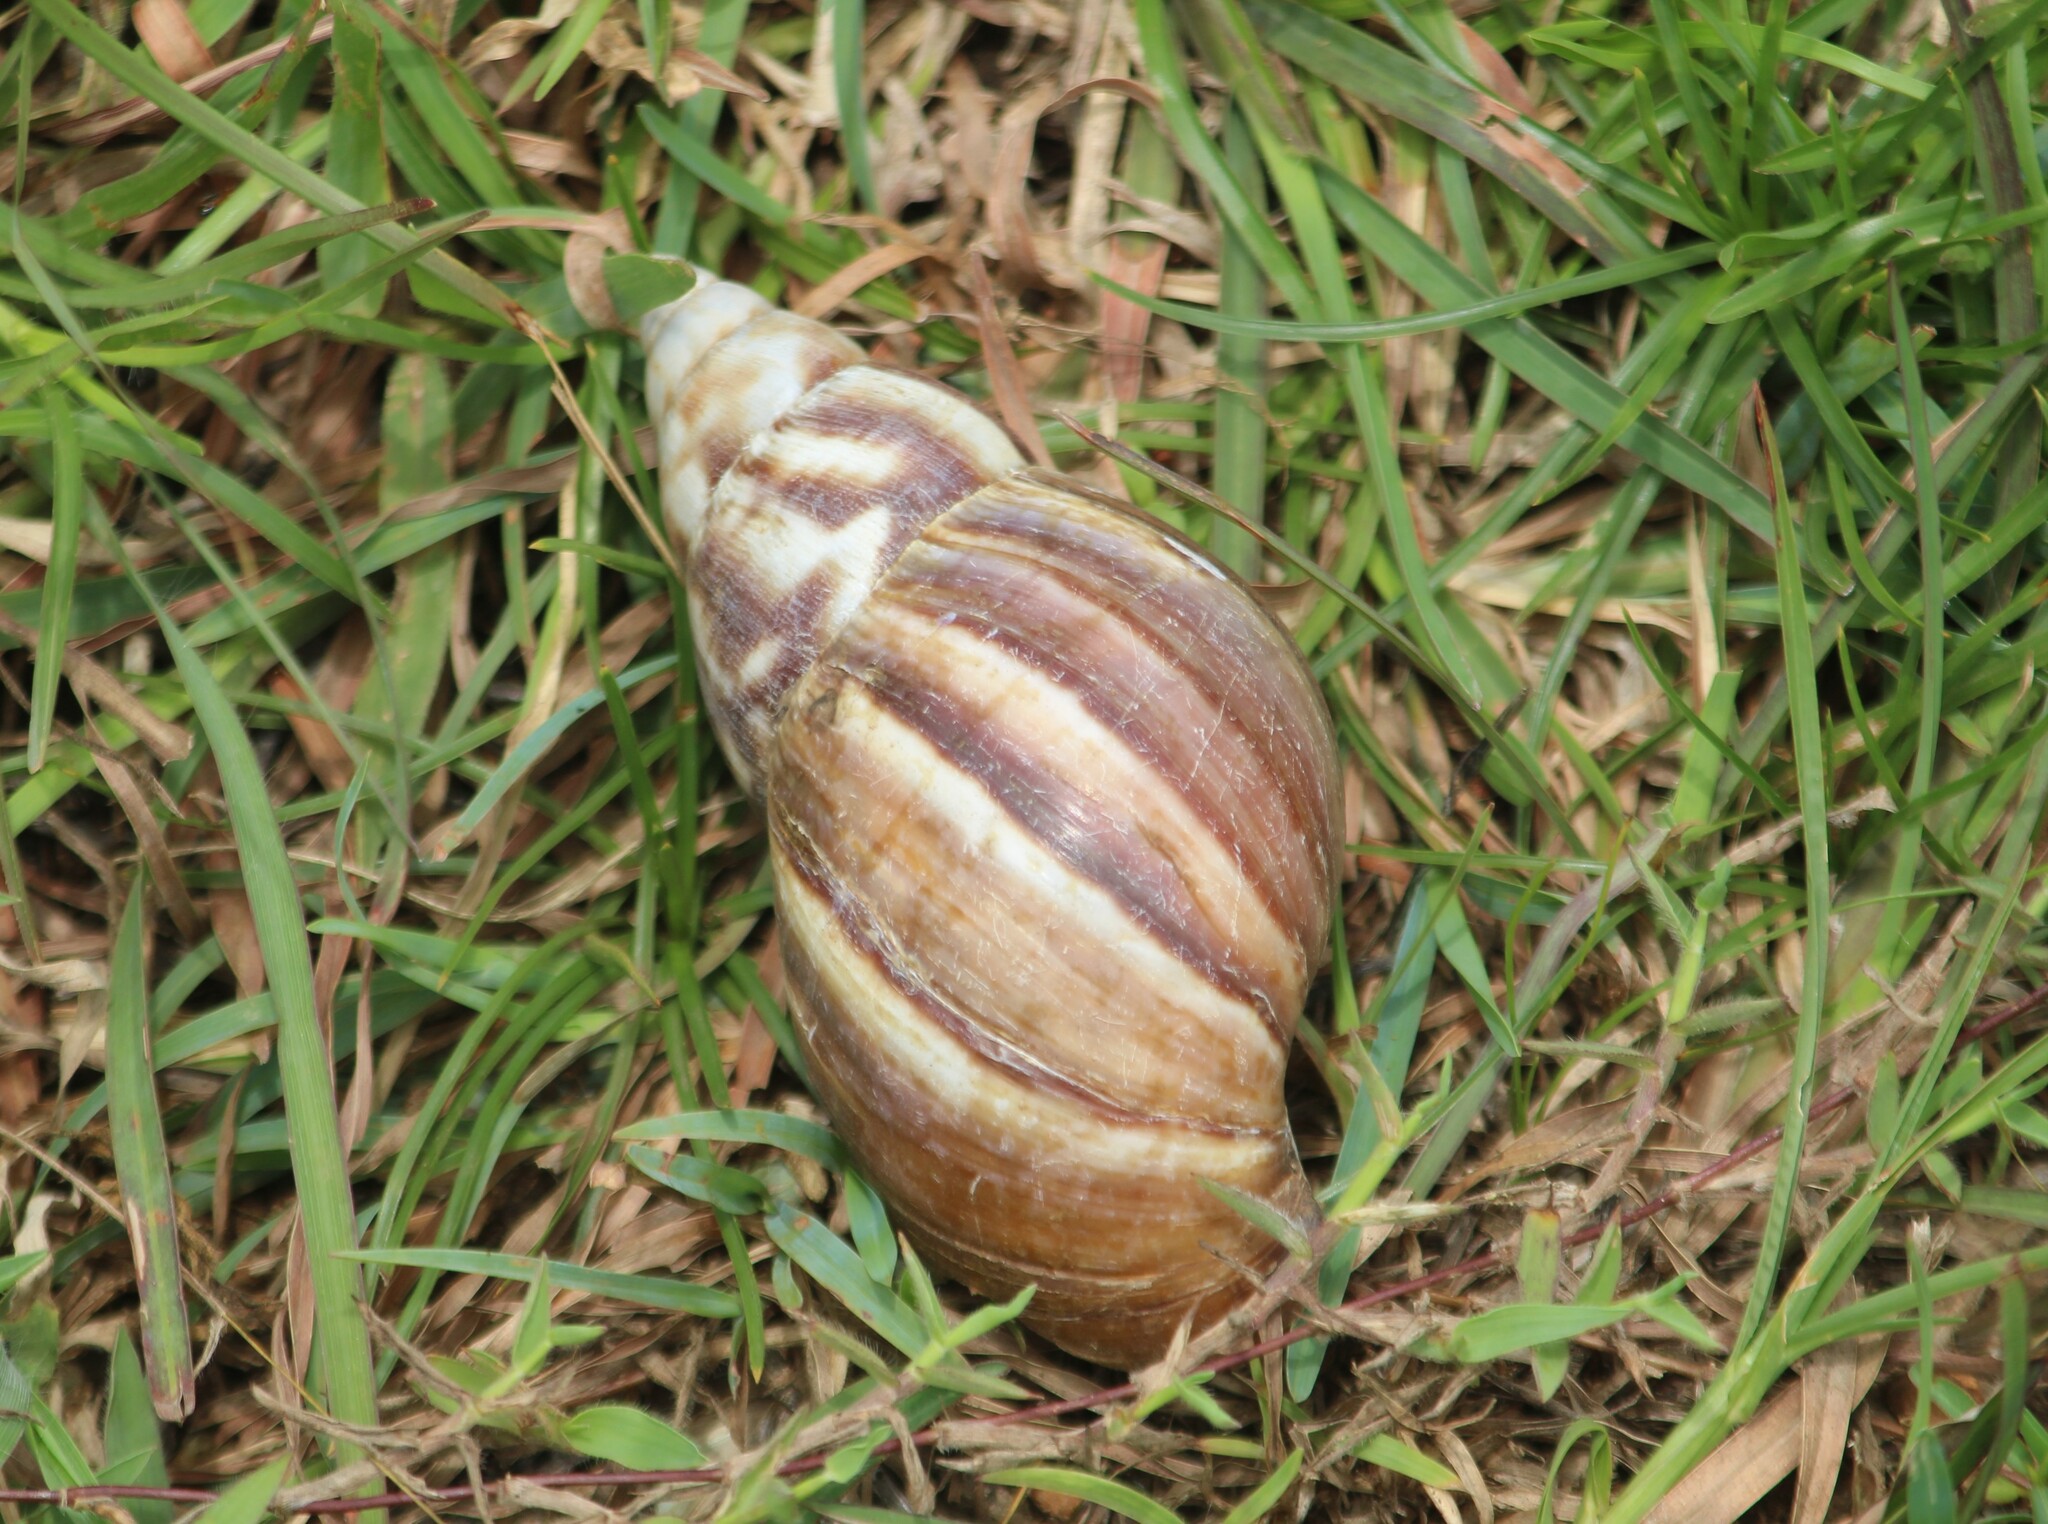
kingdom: Animalia
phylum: Mollusca
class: Gastropoda
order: Stylommatophora
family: Achatinidae
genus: Lissachatina
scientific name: Lissachatina fulica
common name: Giant african snail
